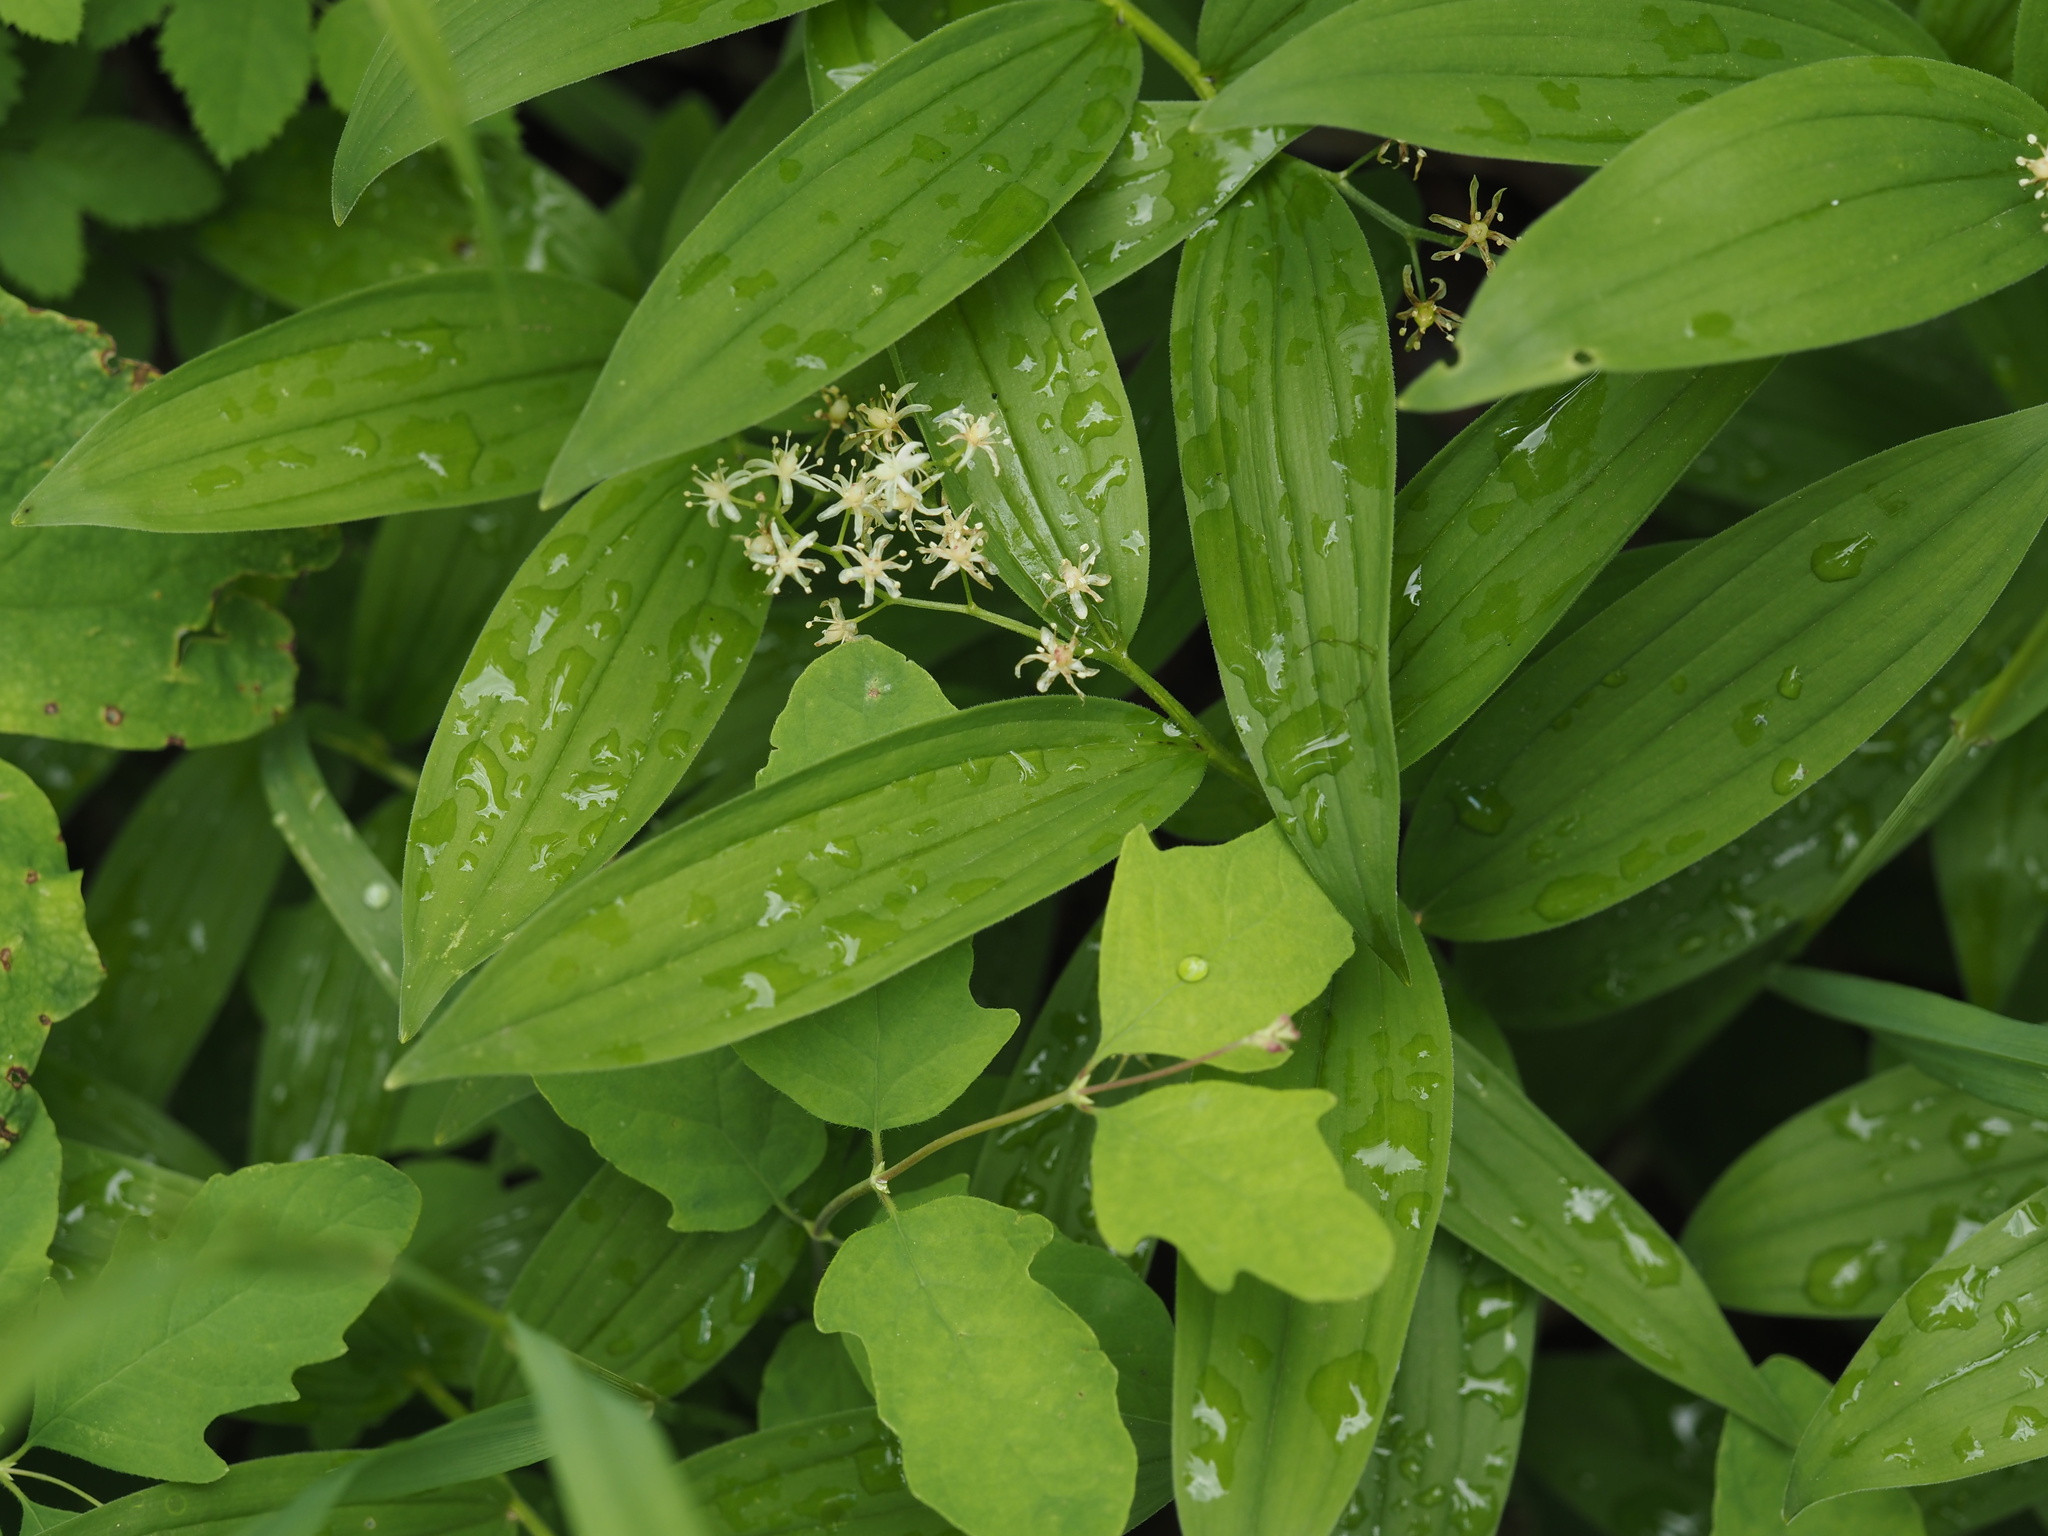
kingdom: Plantae
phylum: Tracheophyta
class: Liliopsida
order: Asparagales
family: Asparagaceae
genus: Maianthemum
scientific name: Maianthemum stellatum
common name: Little false solomon's seal
